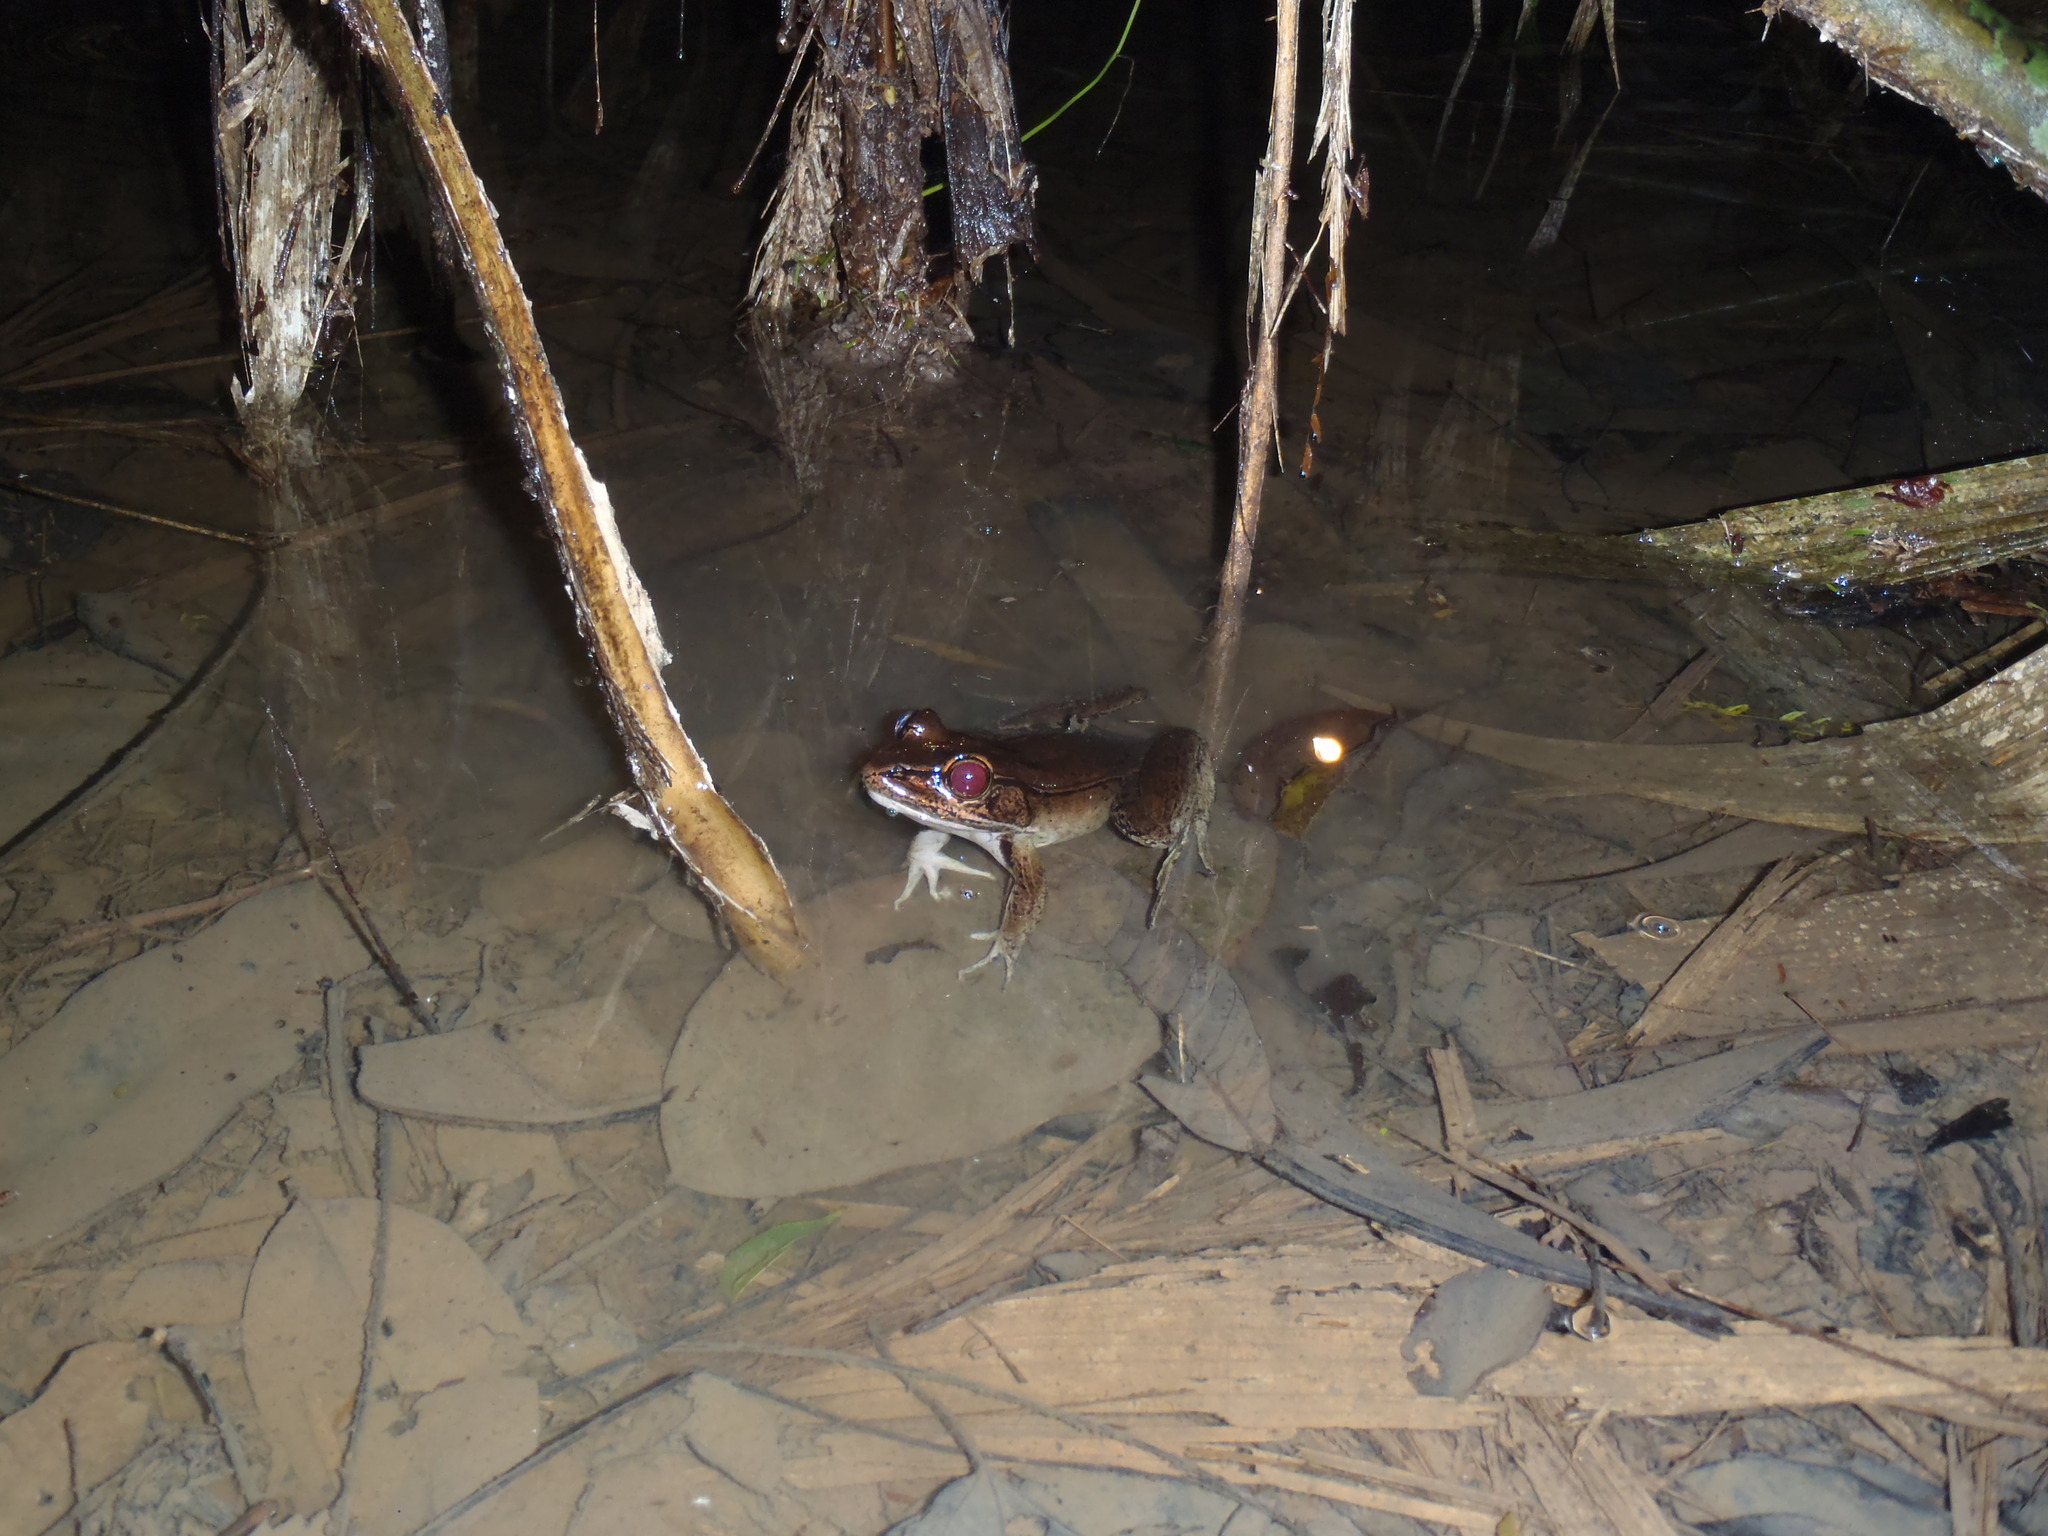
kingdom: Animalia
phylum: Chordata
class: Amphibia
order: Anura
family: Ranidae
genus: Lithobates
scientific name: Lithobates vaillanti
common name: Vaillant's frog
